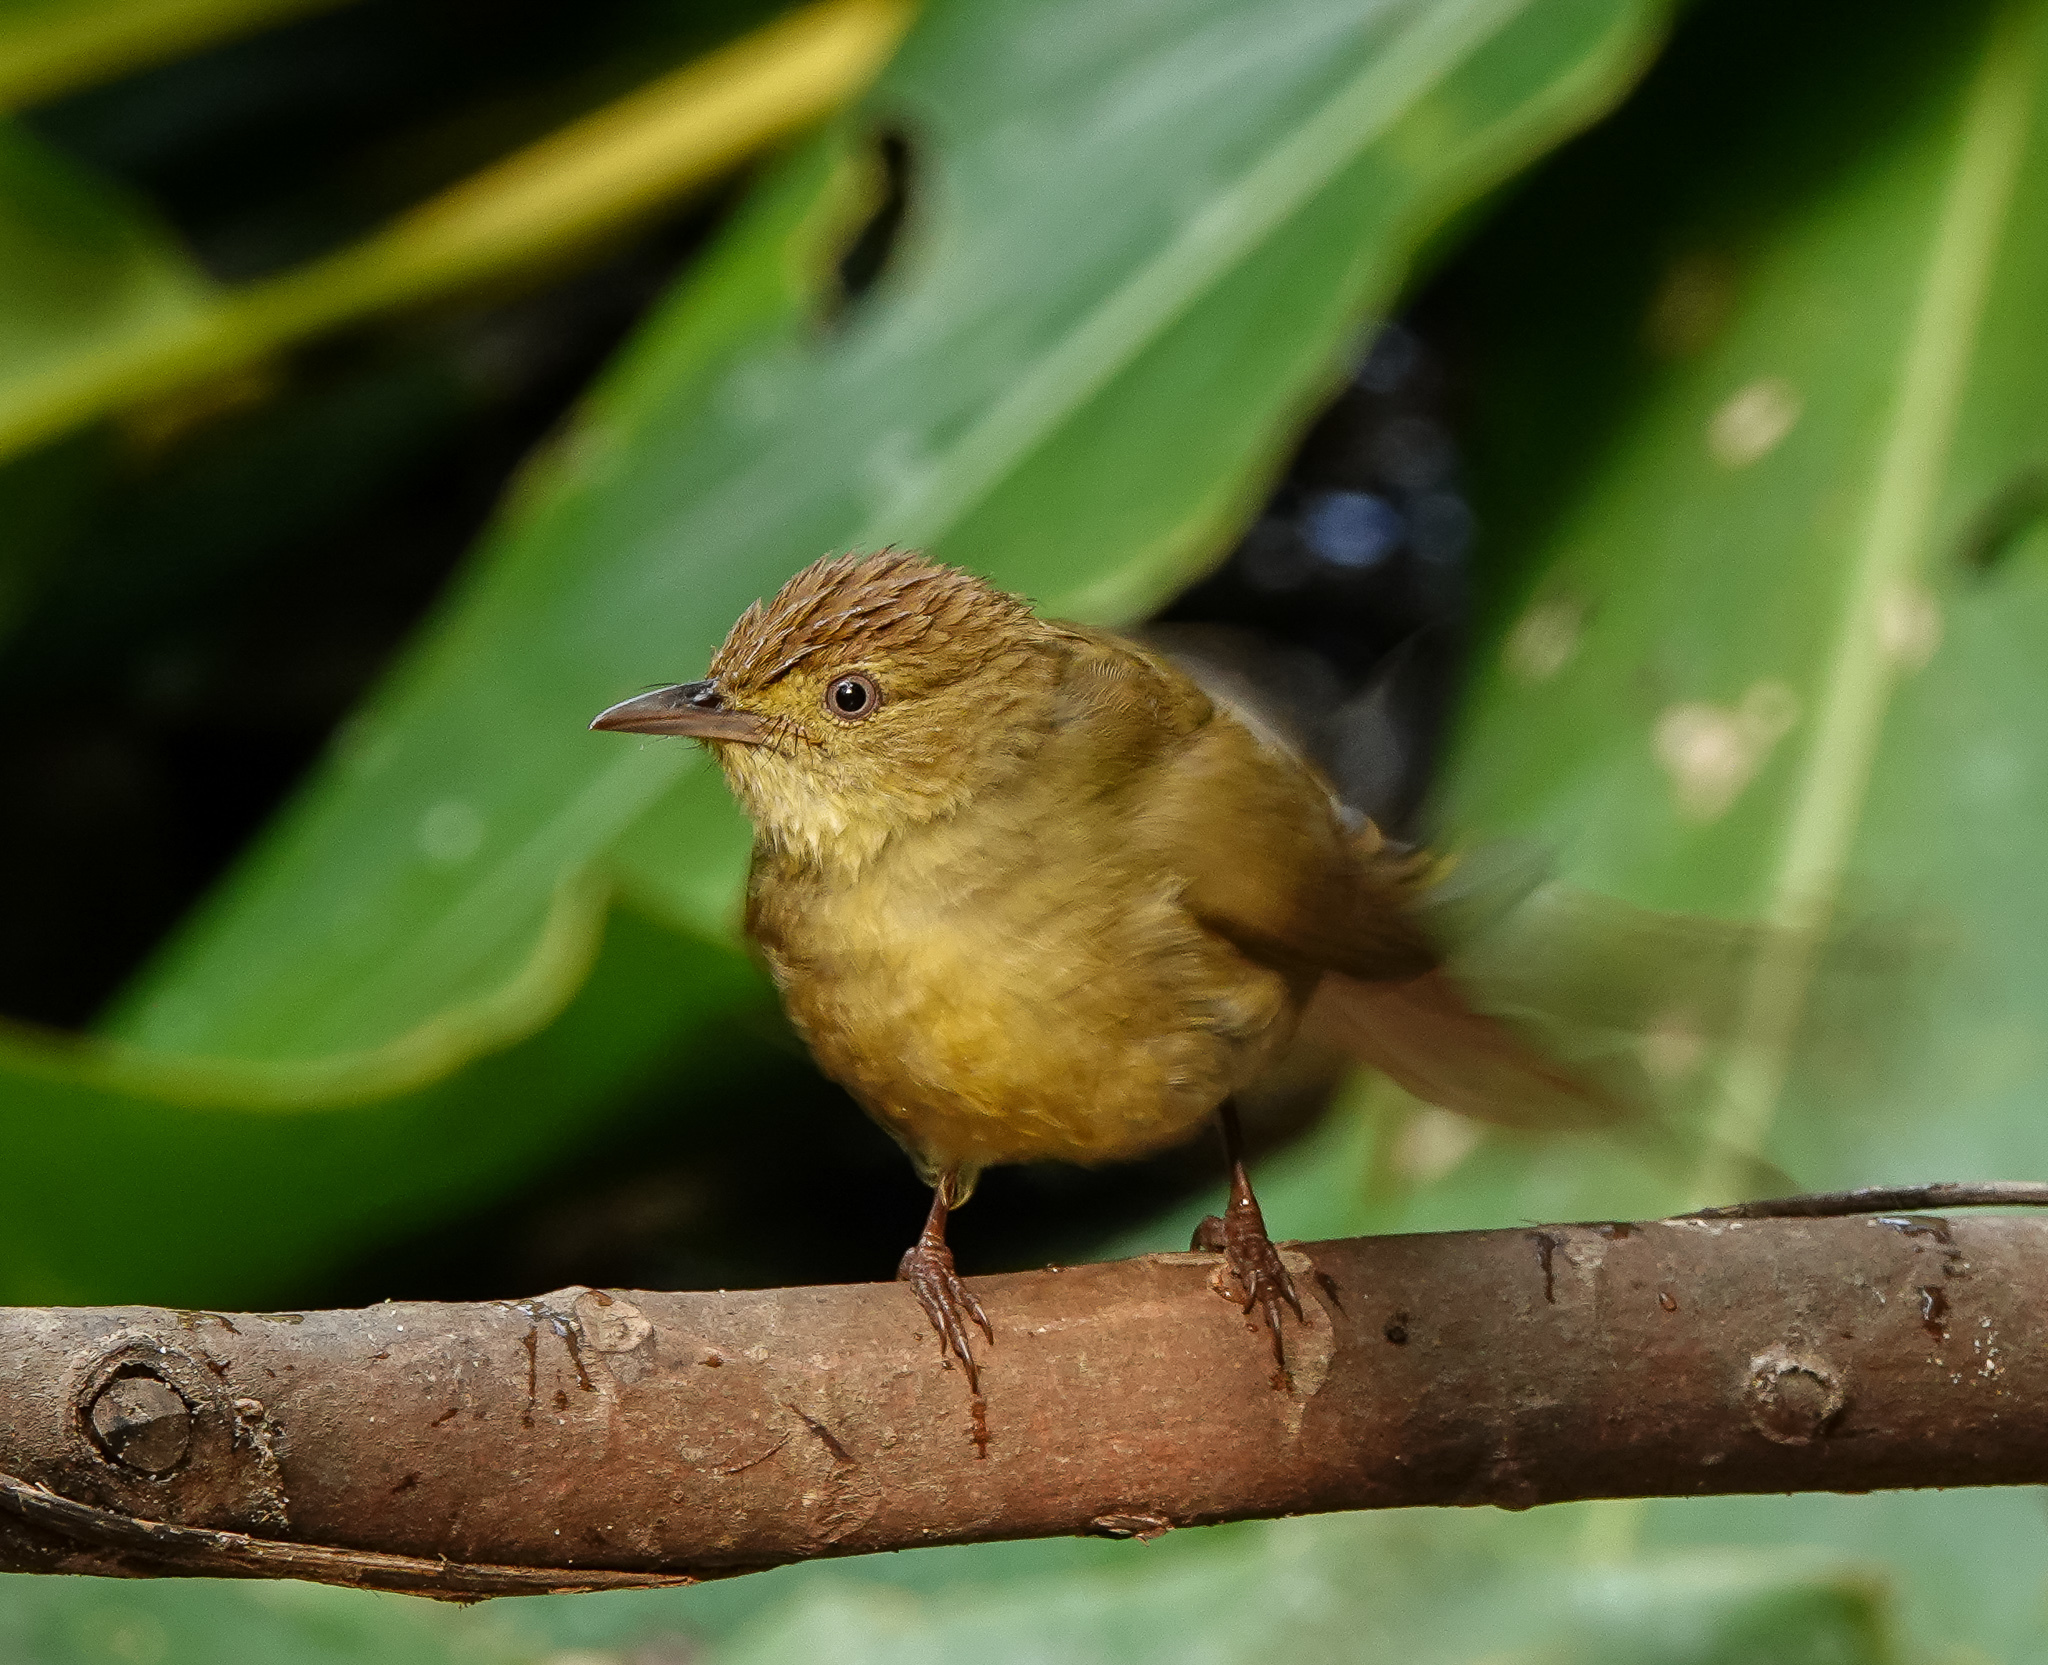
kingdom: Animalia
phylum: Chordata
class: Aves
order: Passeriformes
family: Muscicapidae
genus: Cyornis
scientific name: Cyornis poliogenys
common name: Pale-chinned blue flycatcher
